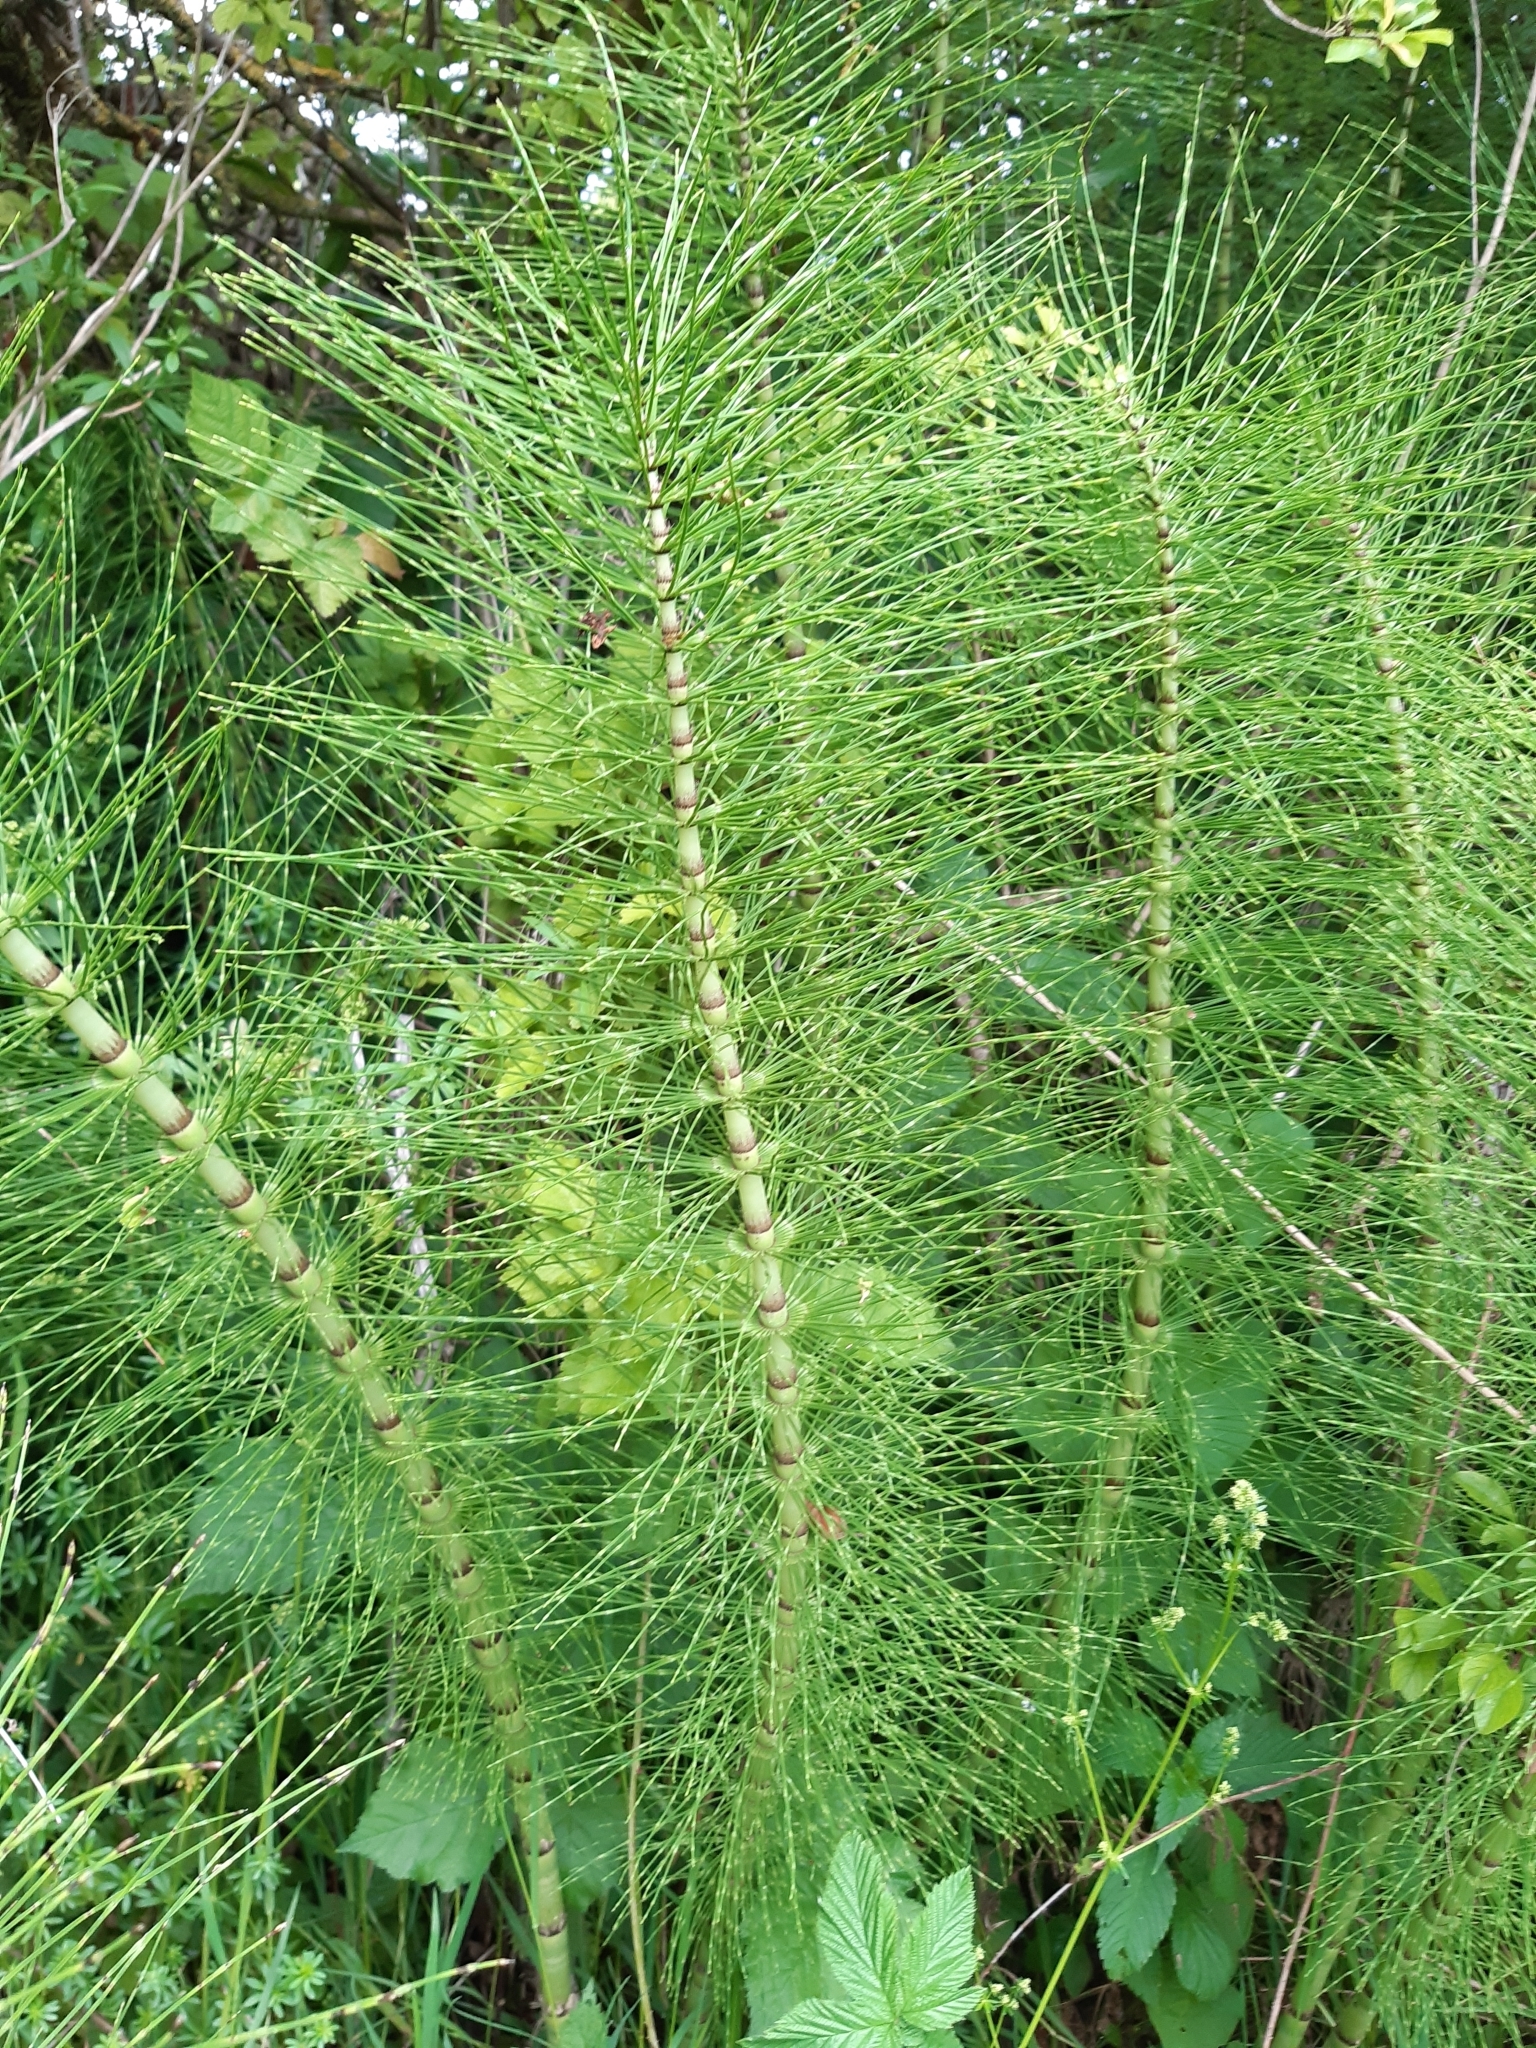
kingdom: Plantae
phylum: Tracheophyta
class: Polypodiopsida
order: Equisetales
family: Equisetaceae
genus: Equisetum
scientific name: Equisetum telmateia
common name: Great horsetail
